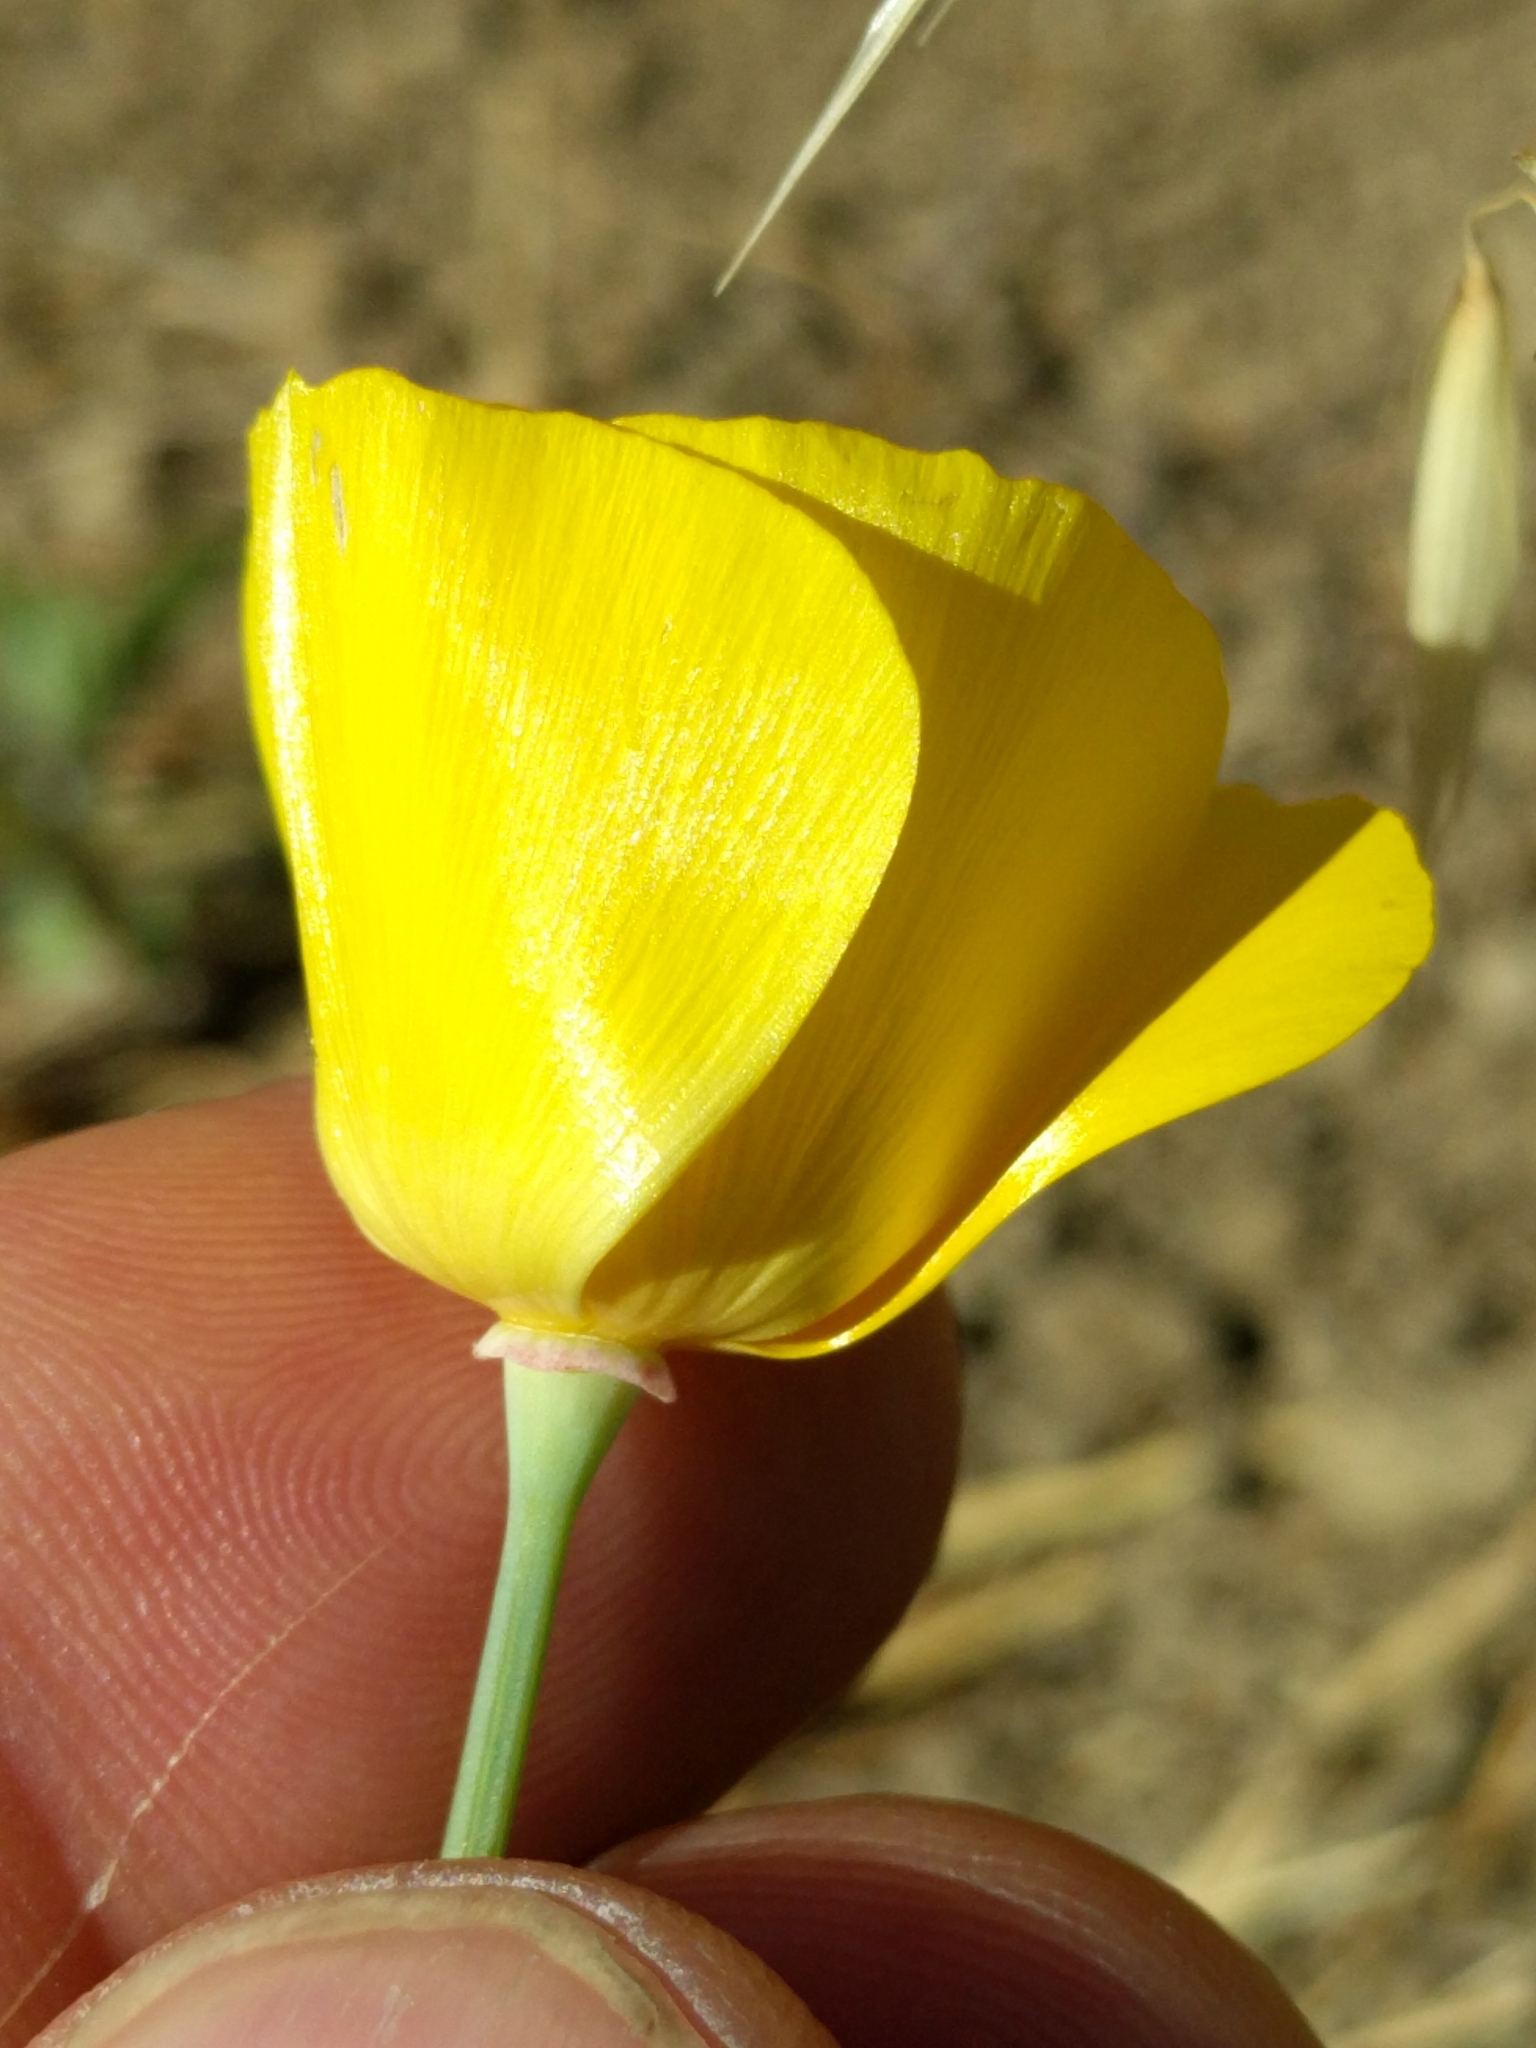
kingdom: Plantae
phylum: Tracheophyta
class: Magnoliopsida
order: Ranunculales
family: Papaveraceae
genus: Eschscholzia
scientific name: Eschscholzia californica
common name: California poppy
